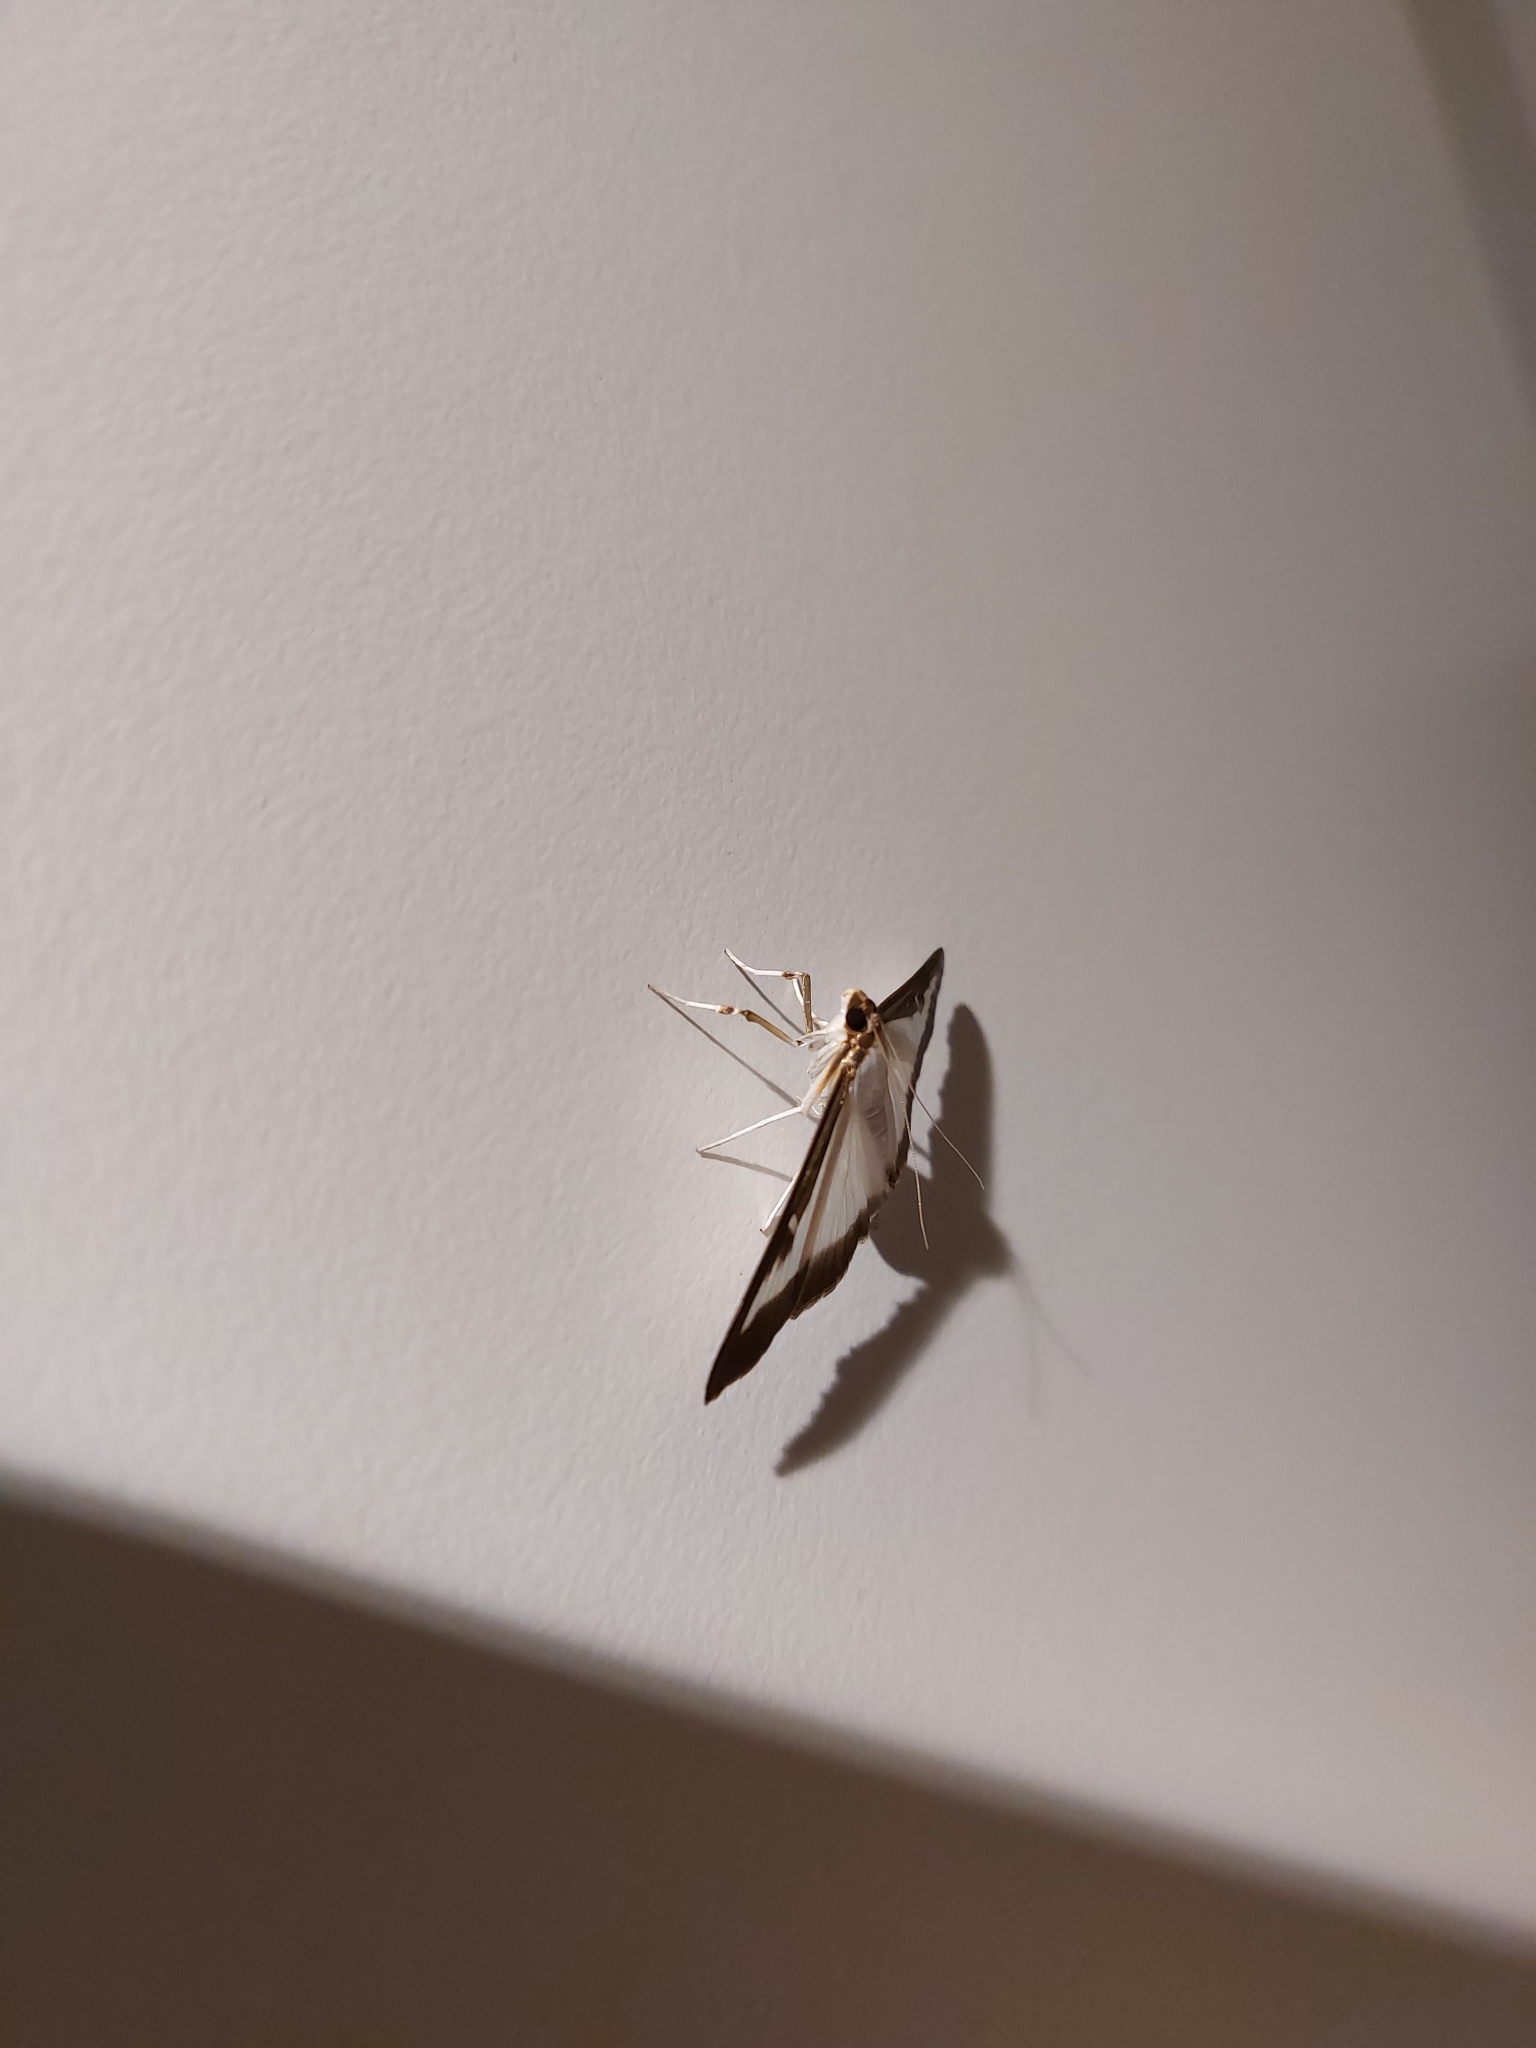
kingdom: Animalia
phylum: Arthropoda
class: Insecta
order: Lepidoptera
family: Crambidae
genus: Cydalima
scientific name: Cydalima perspectalis
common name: Box tree moth
